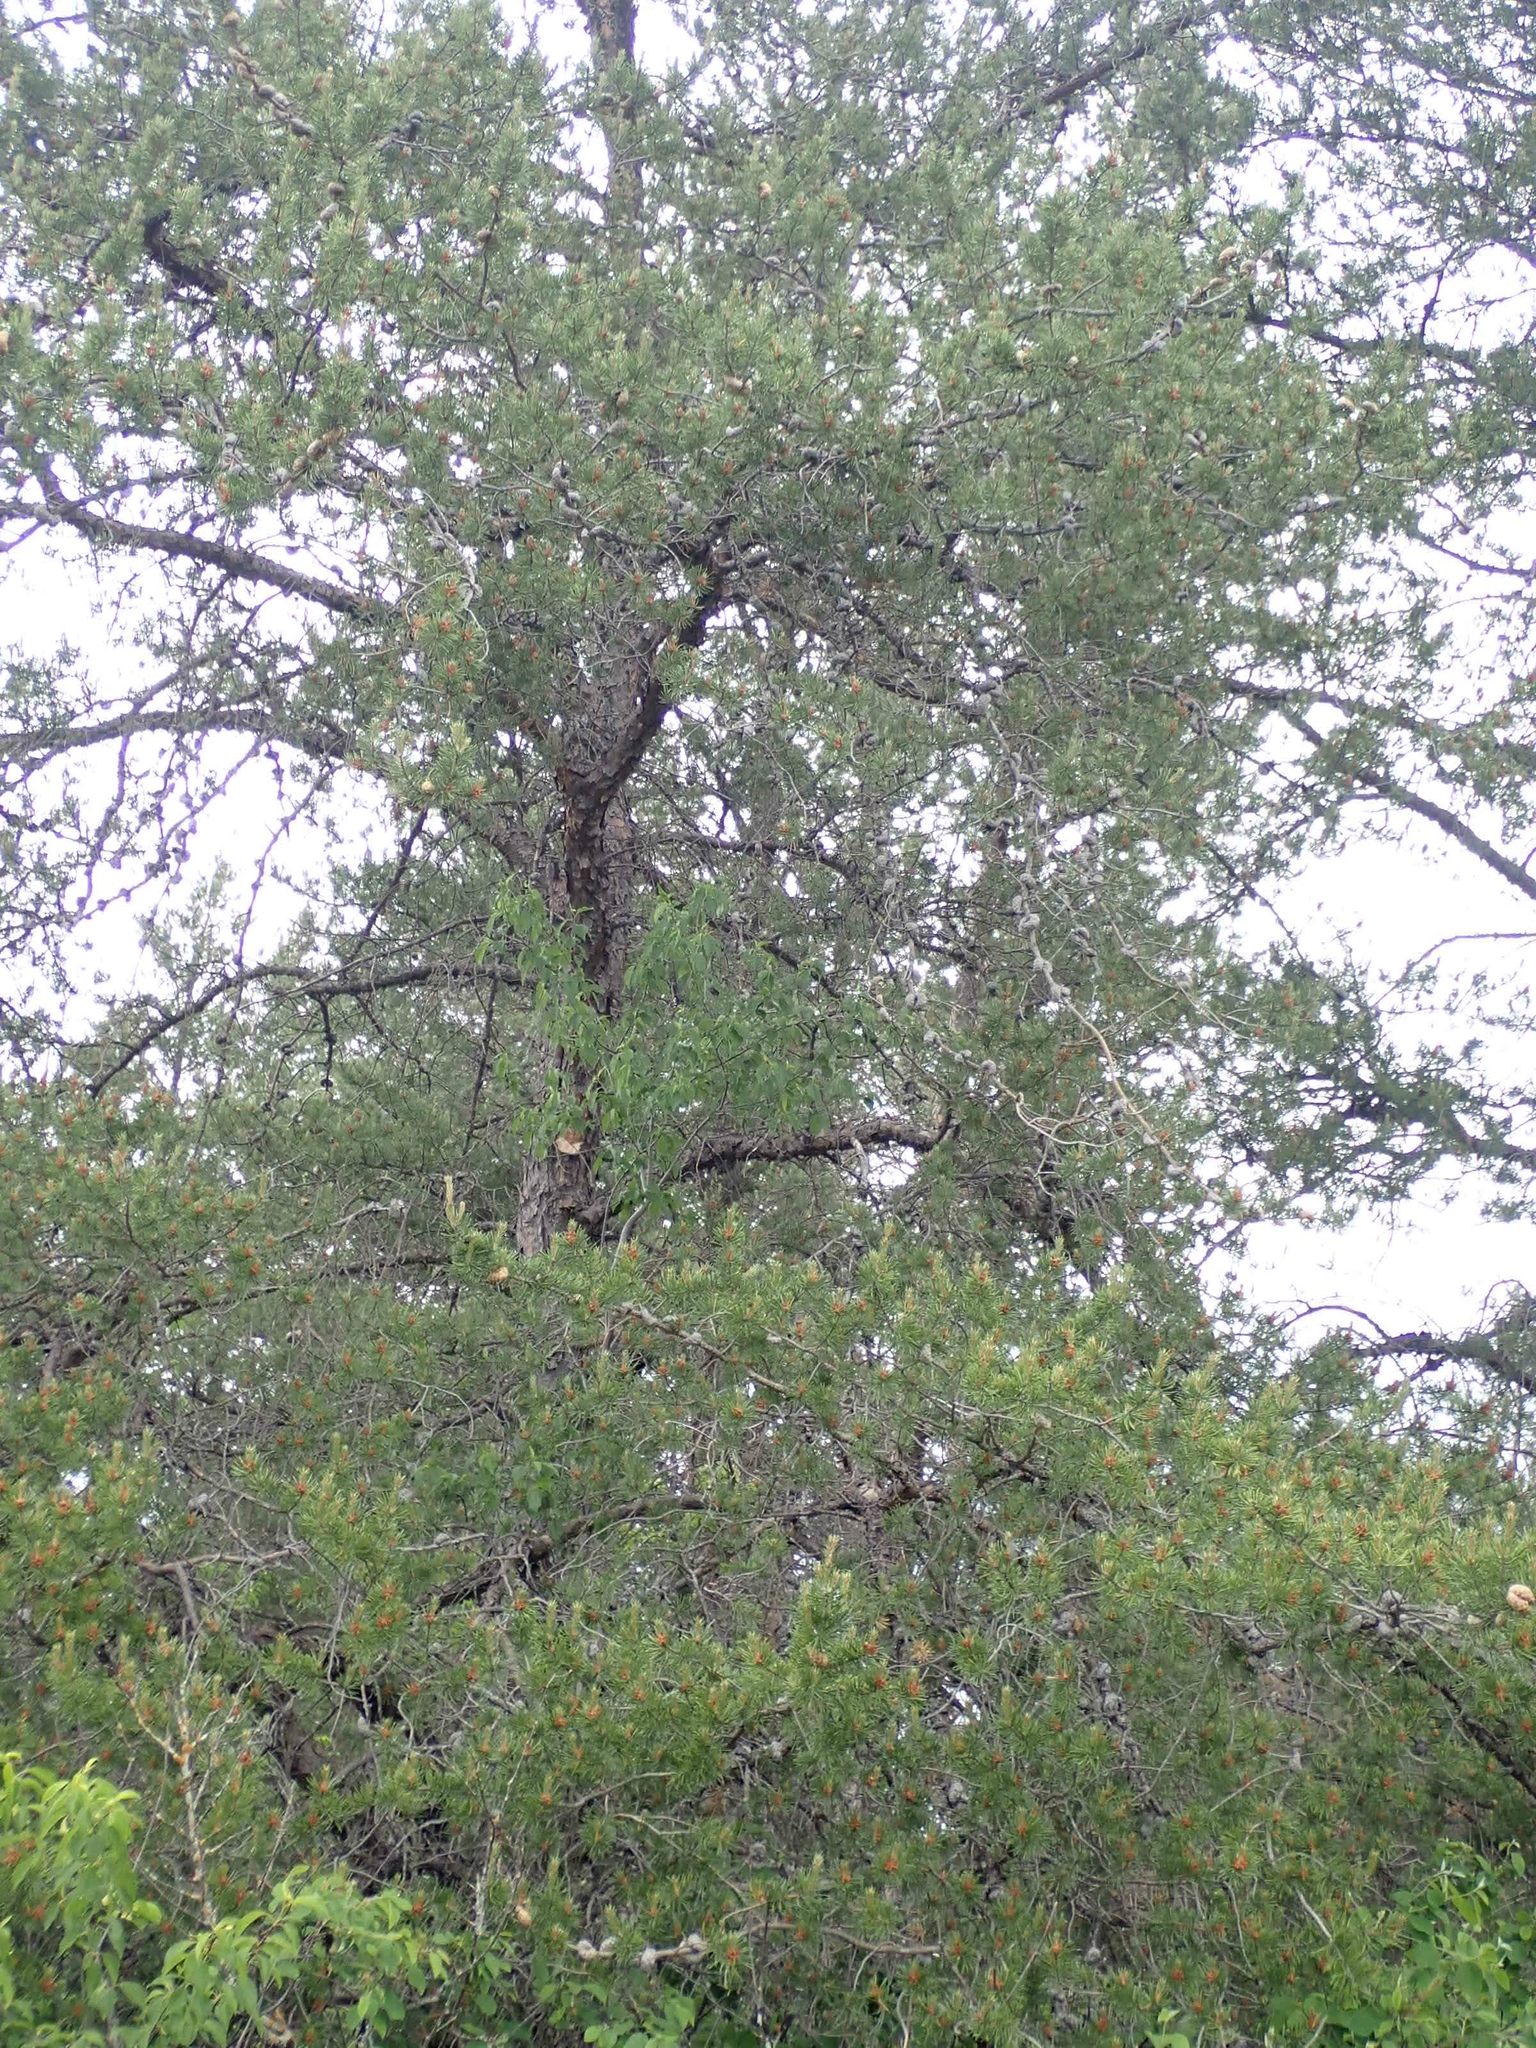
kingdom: Plantae
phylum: Tracheophyta
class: Pinopsida
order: Pinales
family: Pinaceae
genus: Pinus
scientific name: Pinus banksiana
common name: Jack pine
